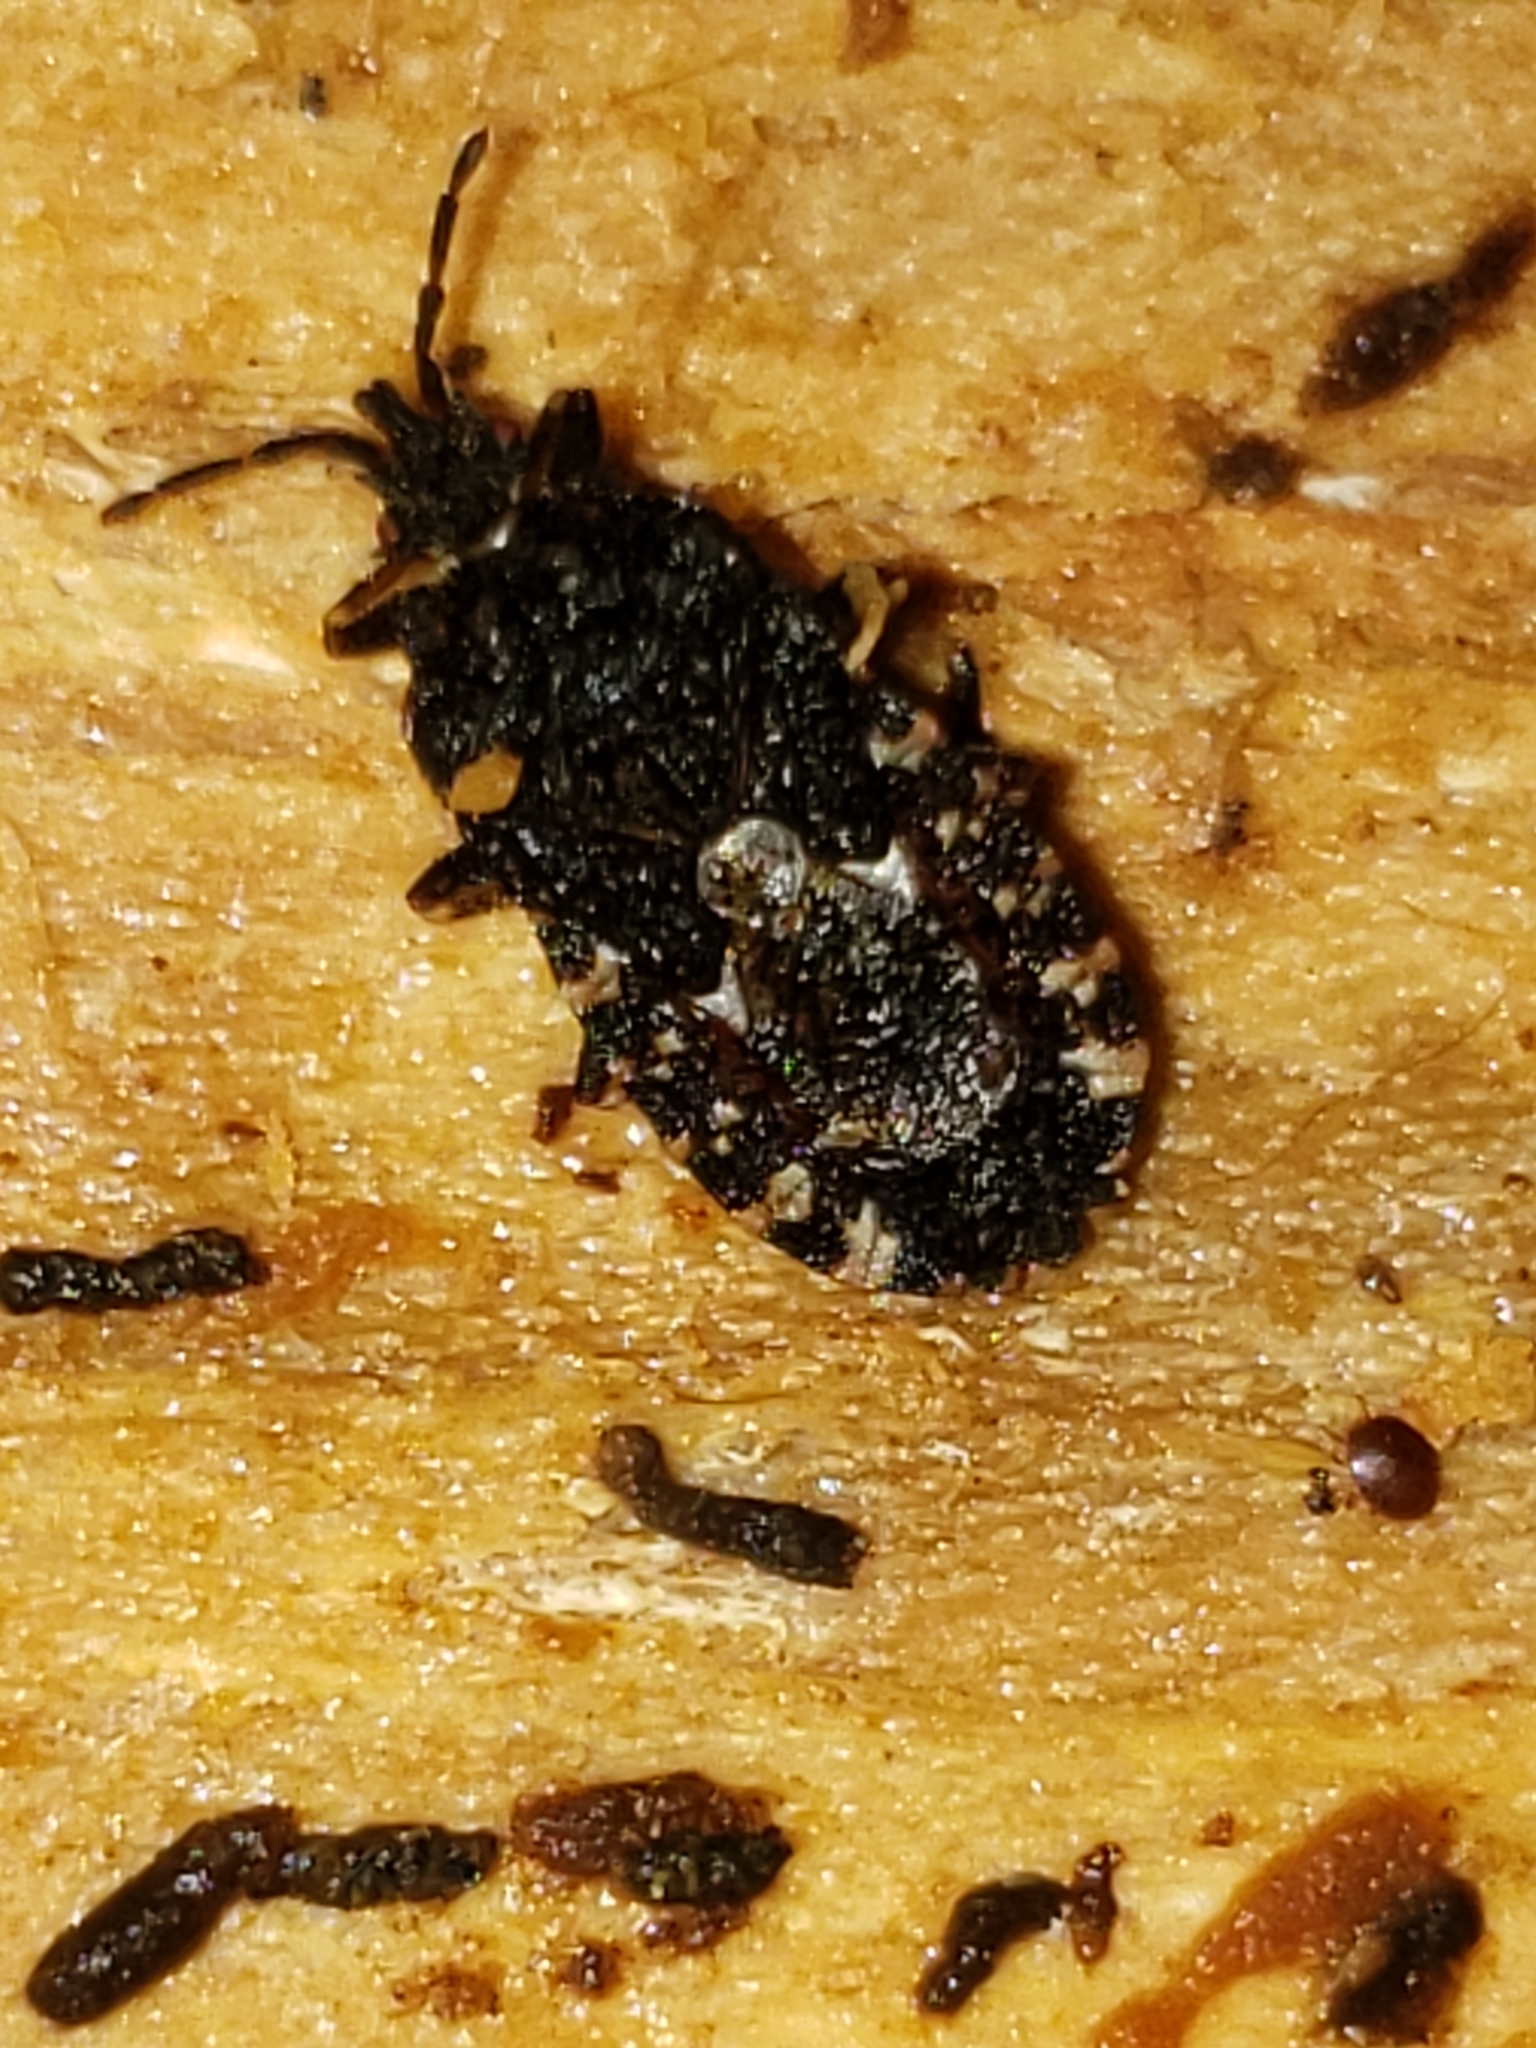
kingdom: Animalia
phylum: Arthropoda
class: Insecta
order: Hemiptera
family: Aradidae
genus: Mezira
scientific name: Mezira
